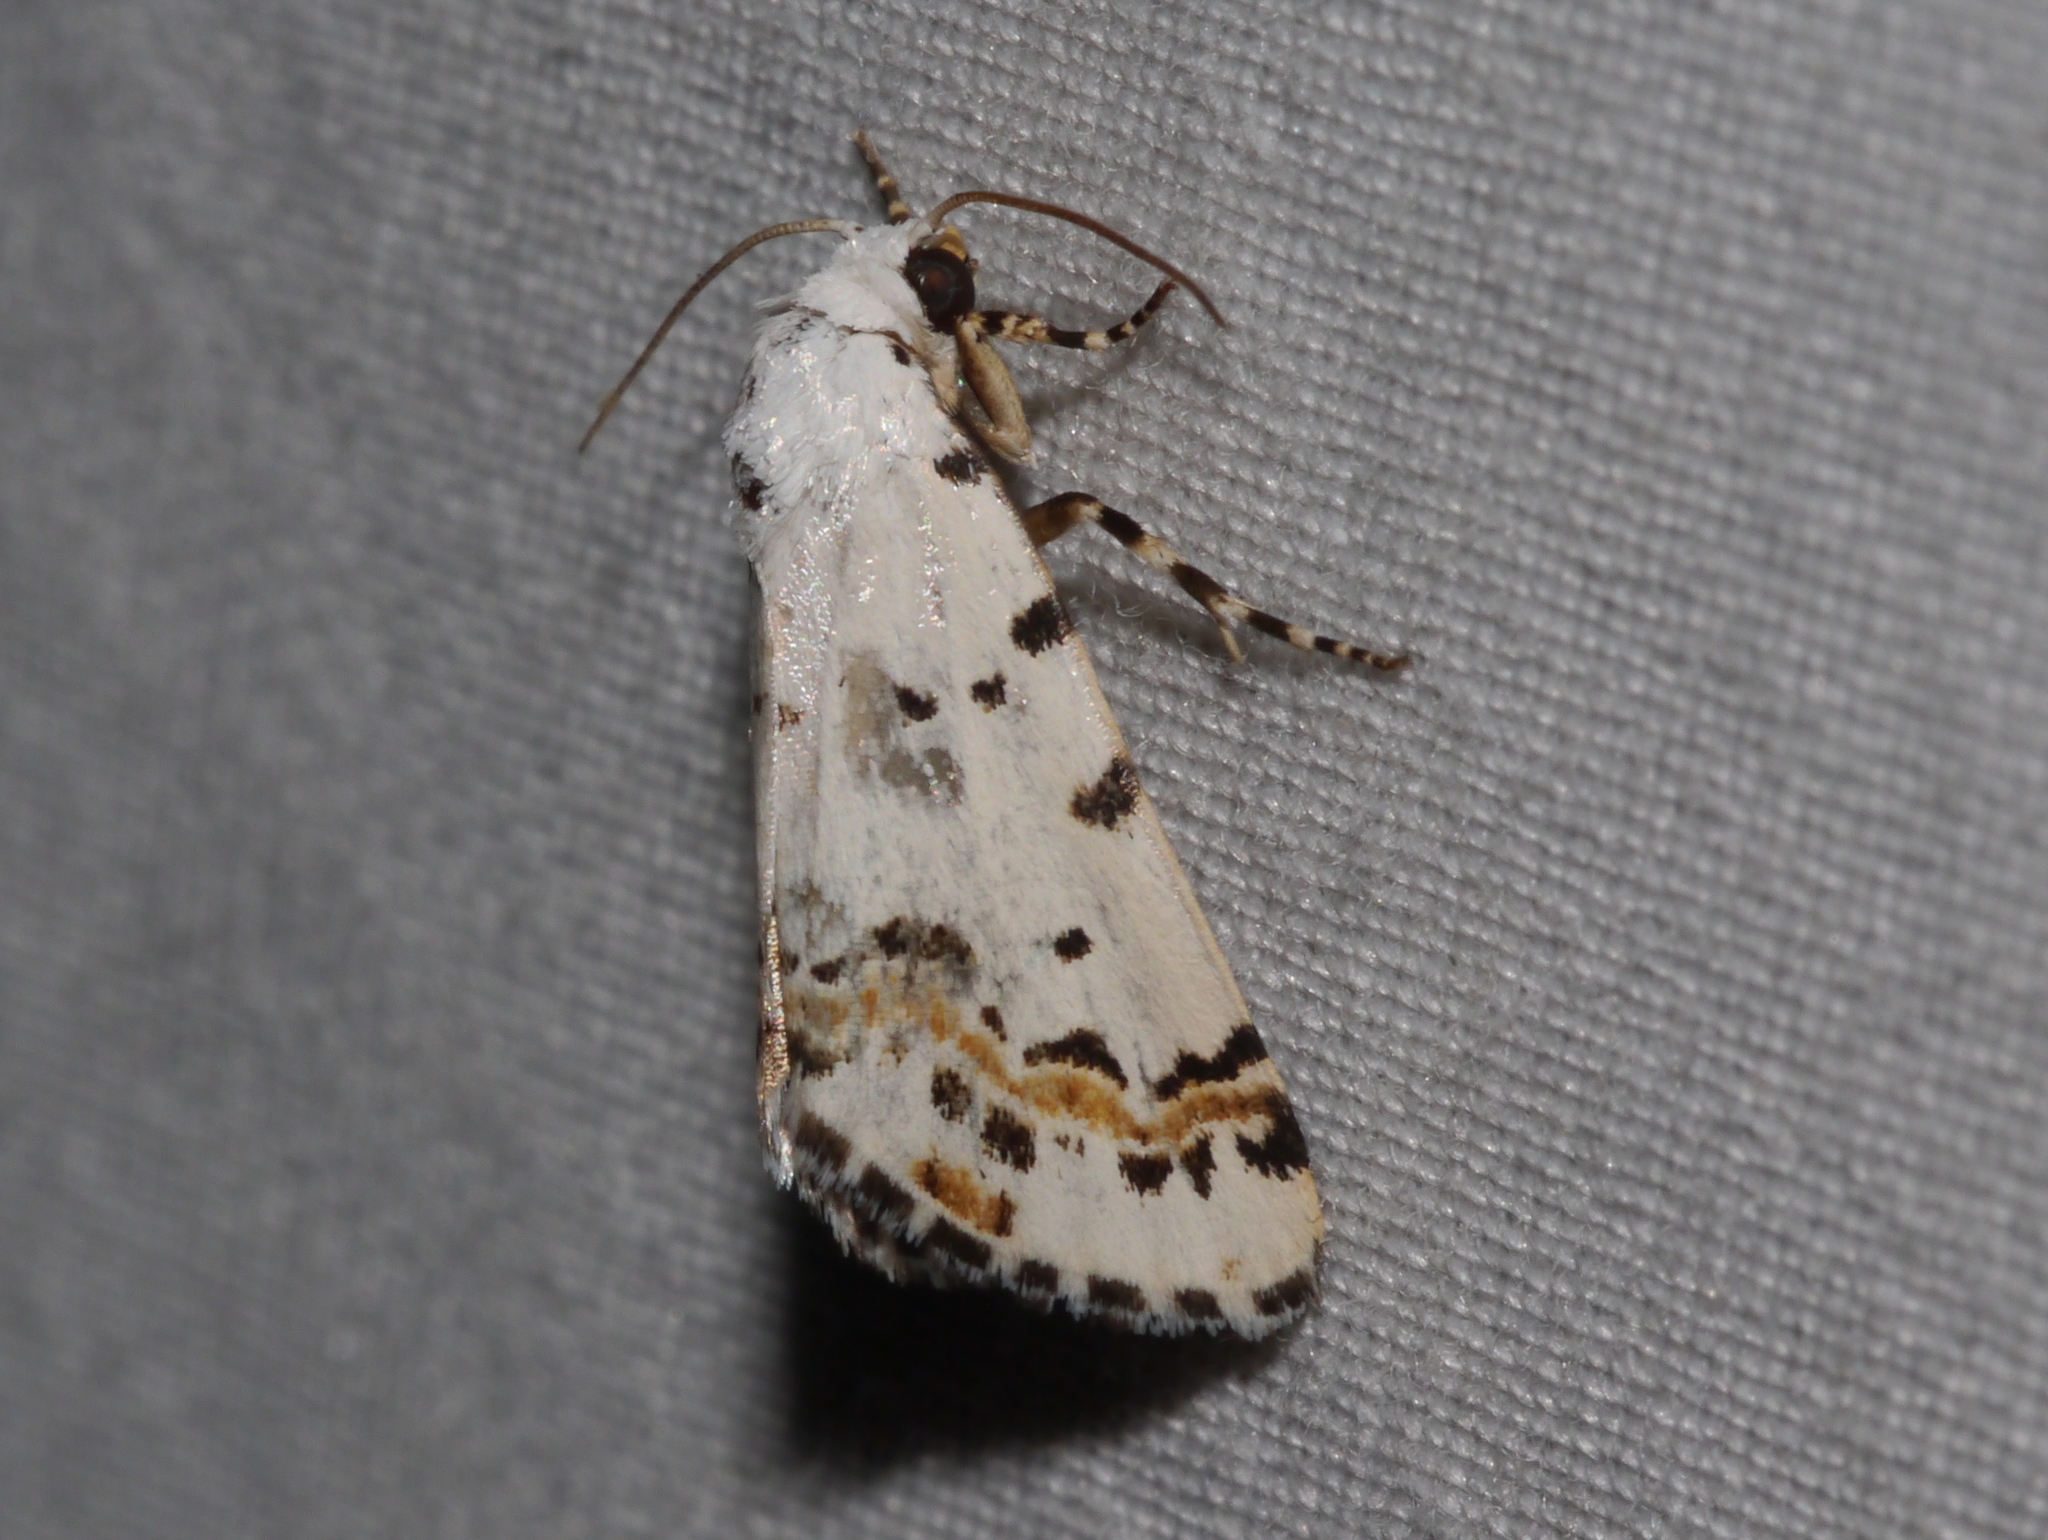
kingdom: Animalia
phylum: Arthropoda
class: Insecta
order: Lepidoptera
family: Noctuidae
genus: Grotella
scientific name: Grotella tricolor
